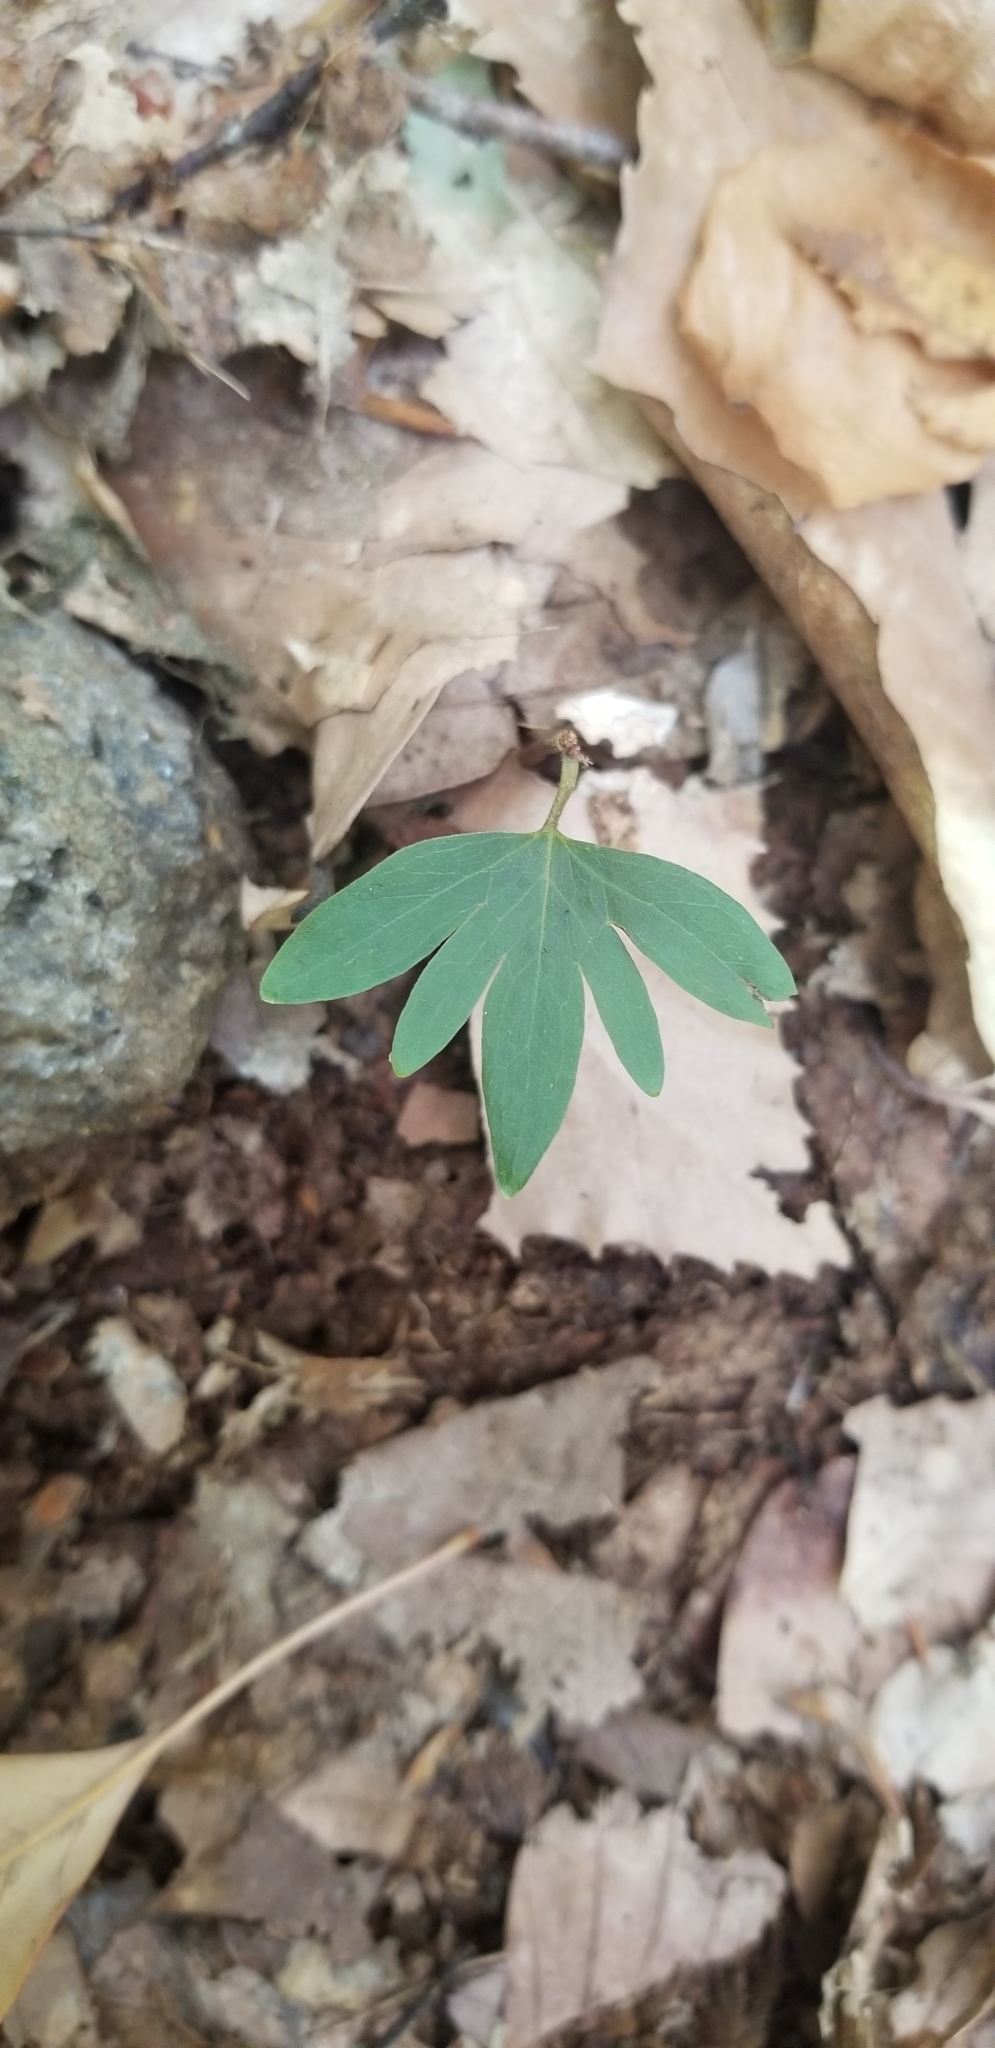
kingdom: Plantae
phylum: Tracheophyta
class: Magnoliopsida
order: Malvales
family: Malvaceae
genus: Tilia
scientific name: Tilia americana
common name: Basswood
